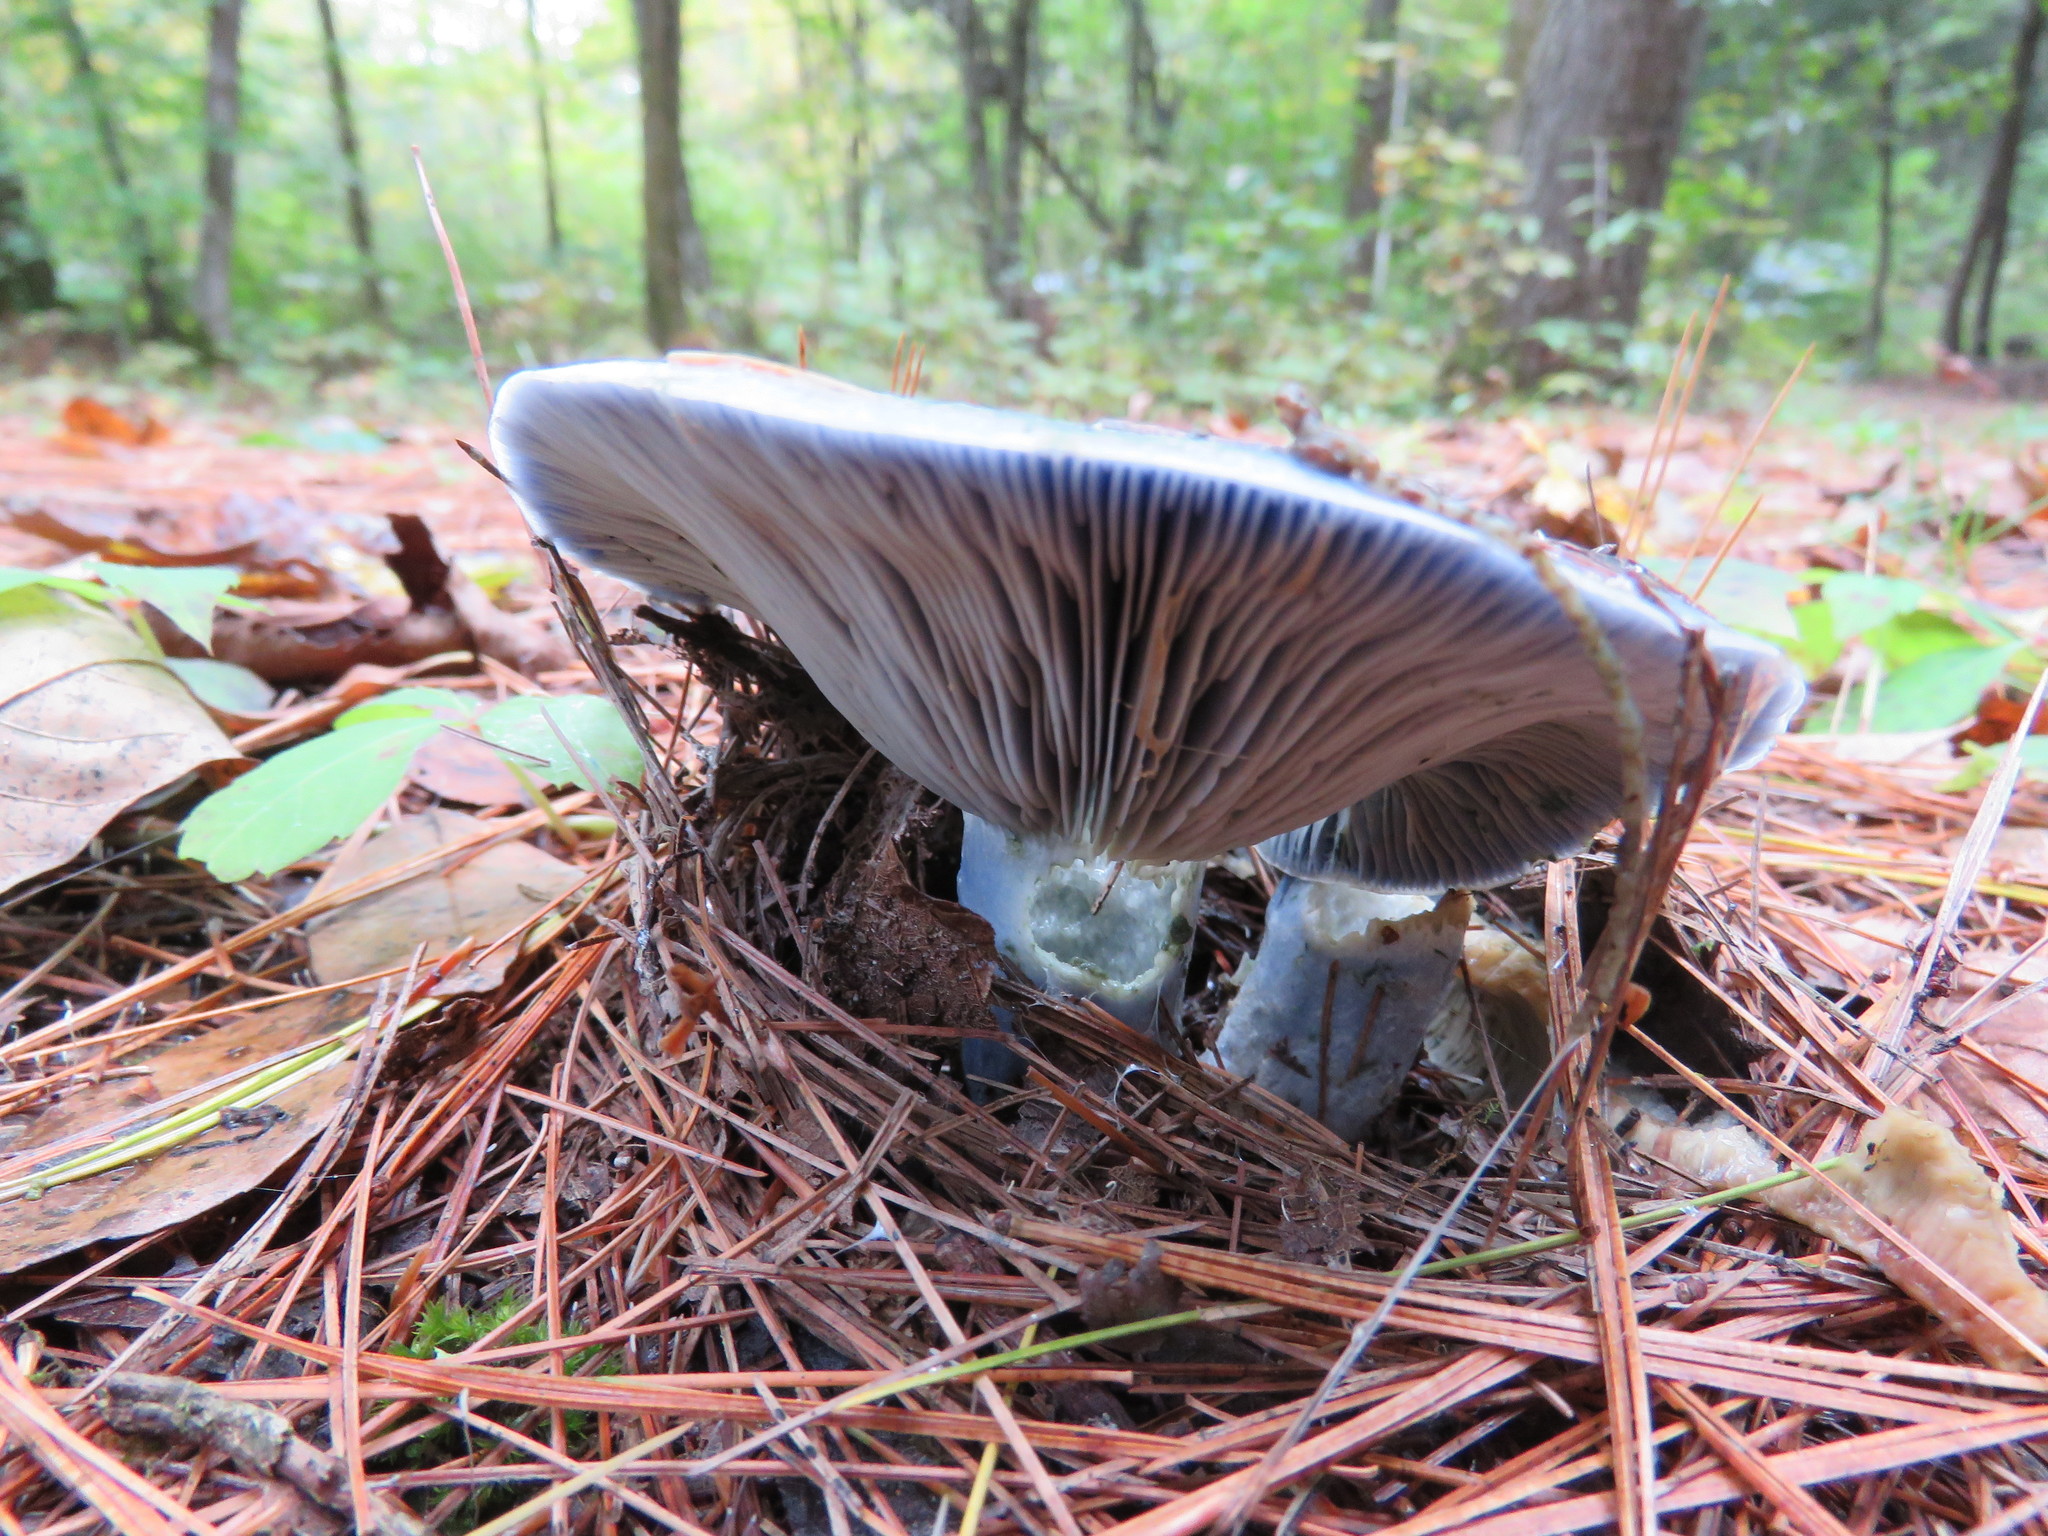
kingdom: Fungi
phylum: Basidiomycota
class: Agaricomycetes
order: Russulales
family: Russulaceae
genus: Lactarius
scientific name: Lactarius indigo
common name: Indigo milk cap
